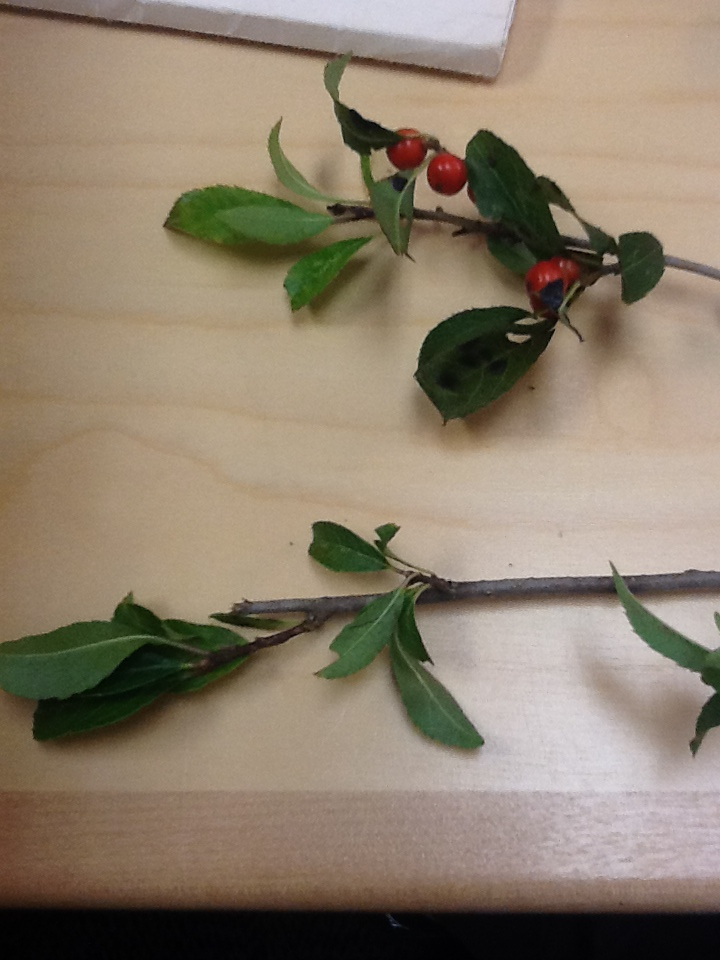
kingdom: Plantae
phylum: Tracheophyta
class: Magnoliopsida
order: Aquifoliales
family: Aquifoliaceae
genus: Ilex
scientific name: Ilex verticillata
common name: Virginia winterberry
